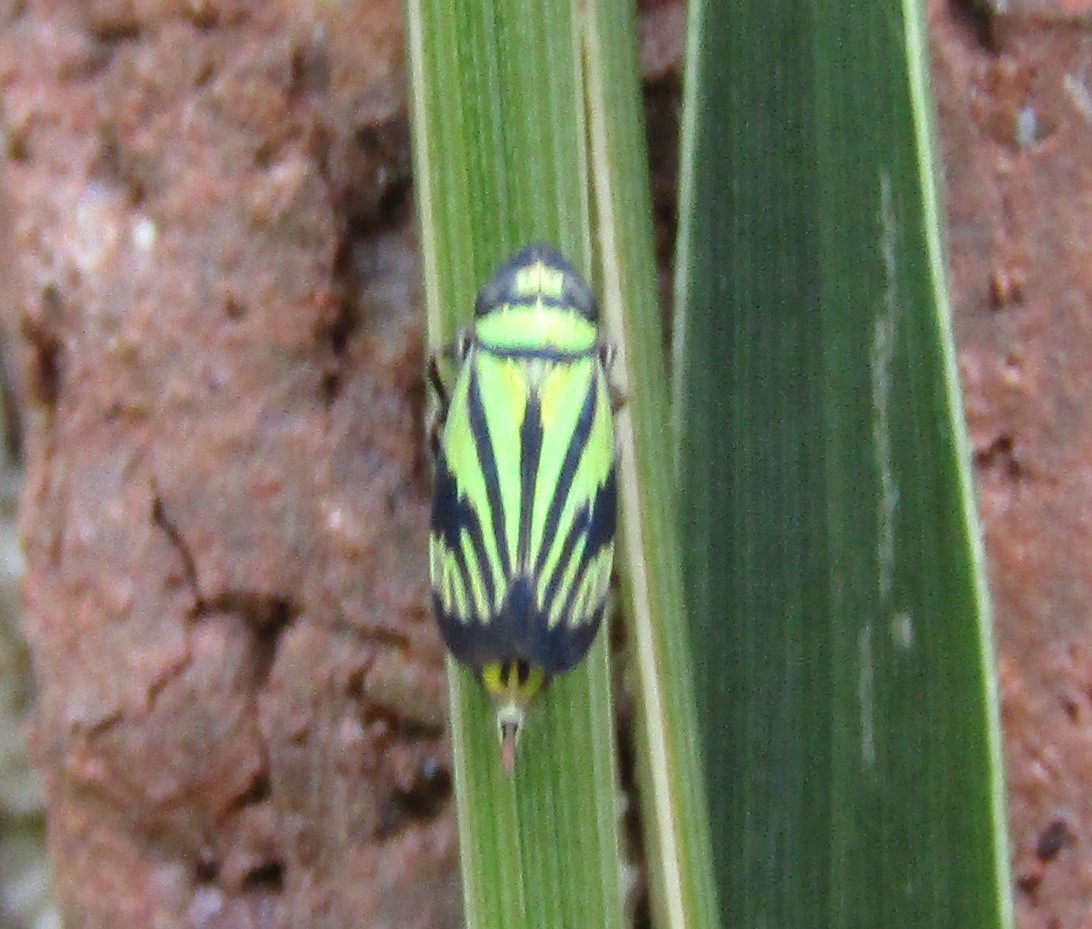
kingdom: Animalia
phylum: Arthropoda
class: Insecta
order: Hemiptera
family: Cicadellidae
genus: Stirellus
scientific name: Stirellus bicolor
